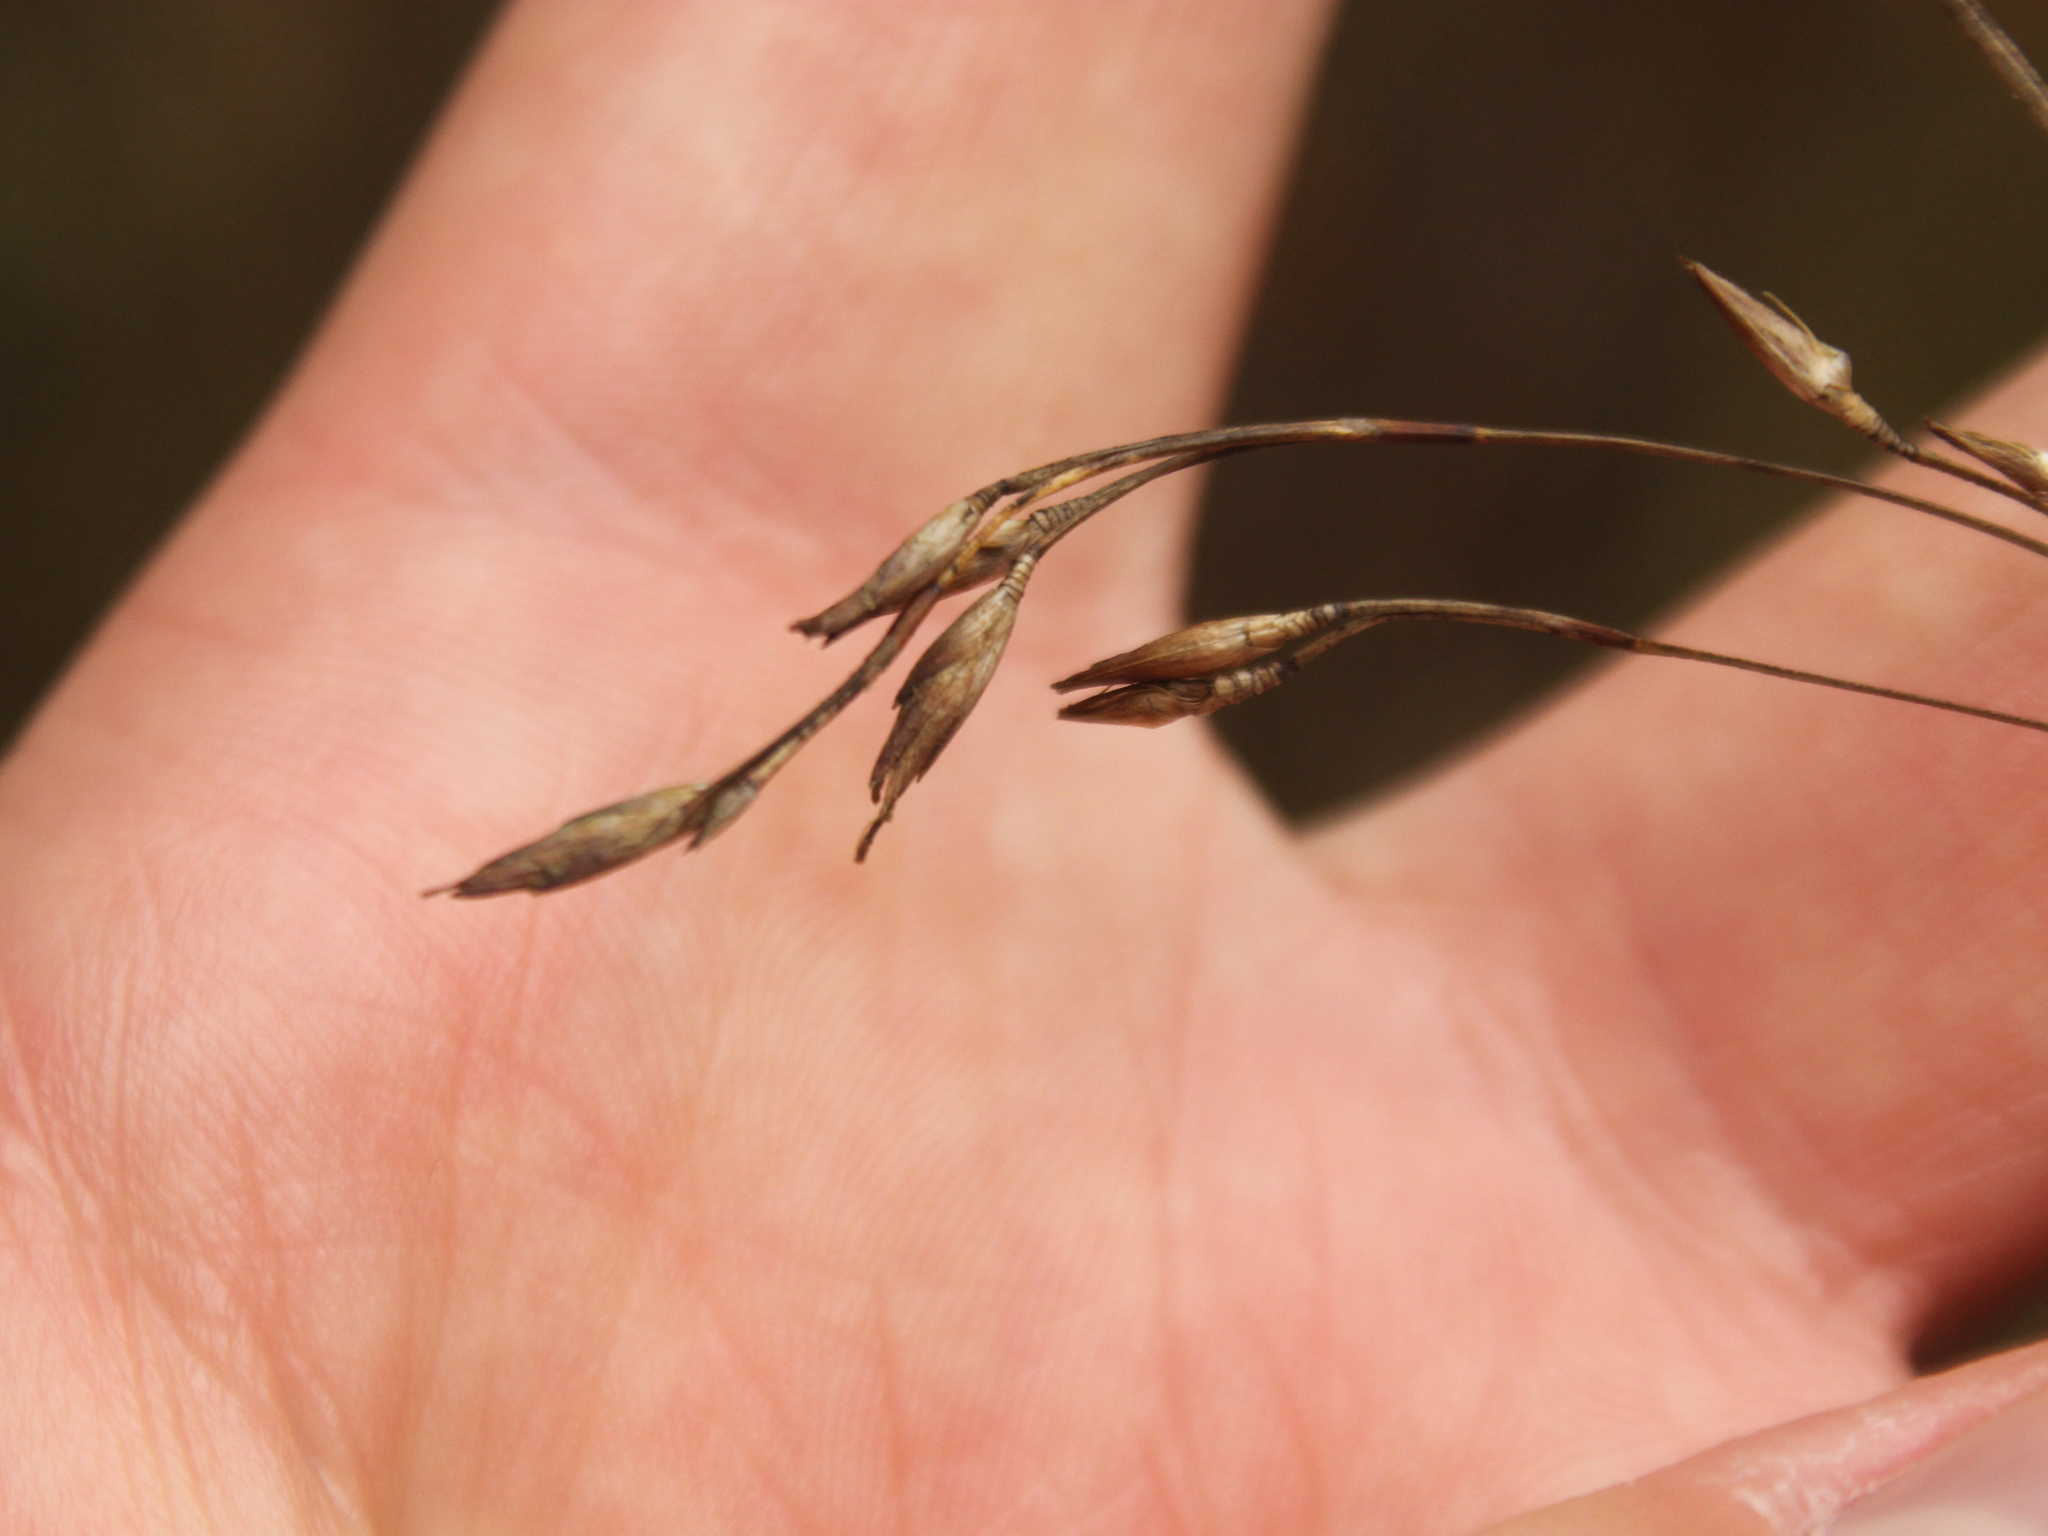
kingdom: Plantae
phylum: Tracheophyta
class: Liliopsida
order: Poales
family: Cyperaceae
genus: Schoenus
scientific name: Schoenus tendo
